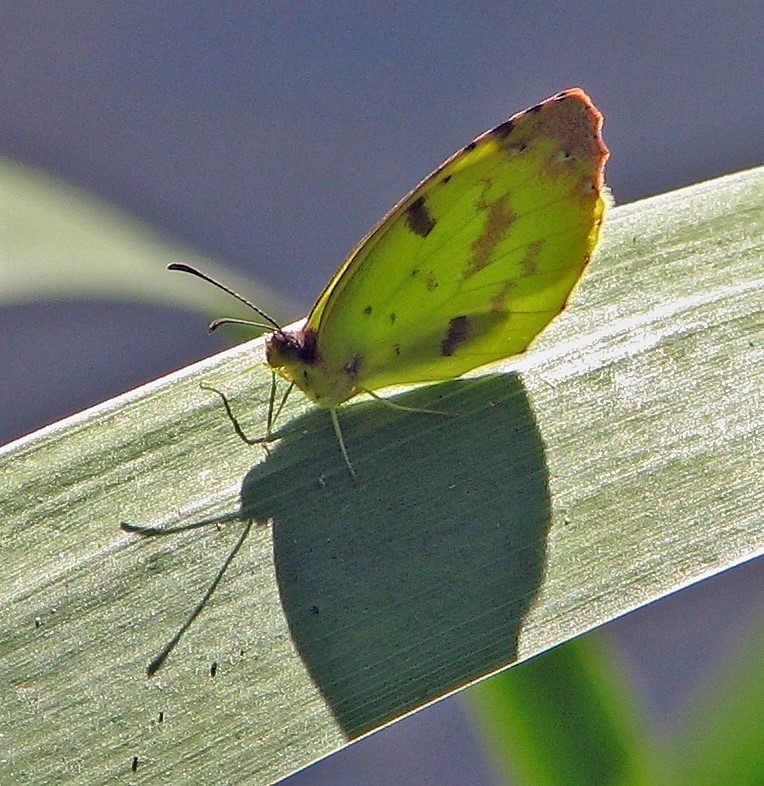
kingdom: Animalia
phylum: Arthropoda
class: Insecta
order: Lepidoptera
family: Pieridae
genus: Teriocolias
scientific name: Teriocolias
